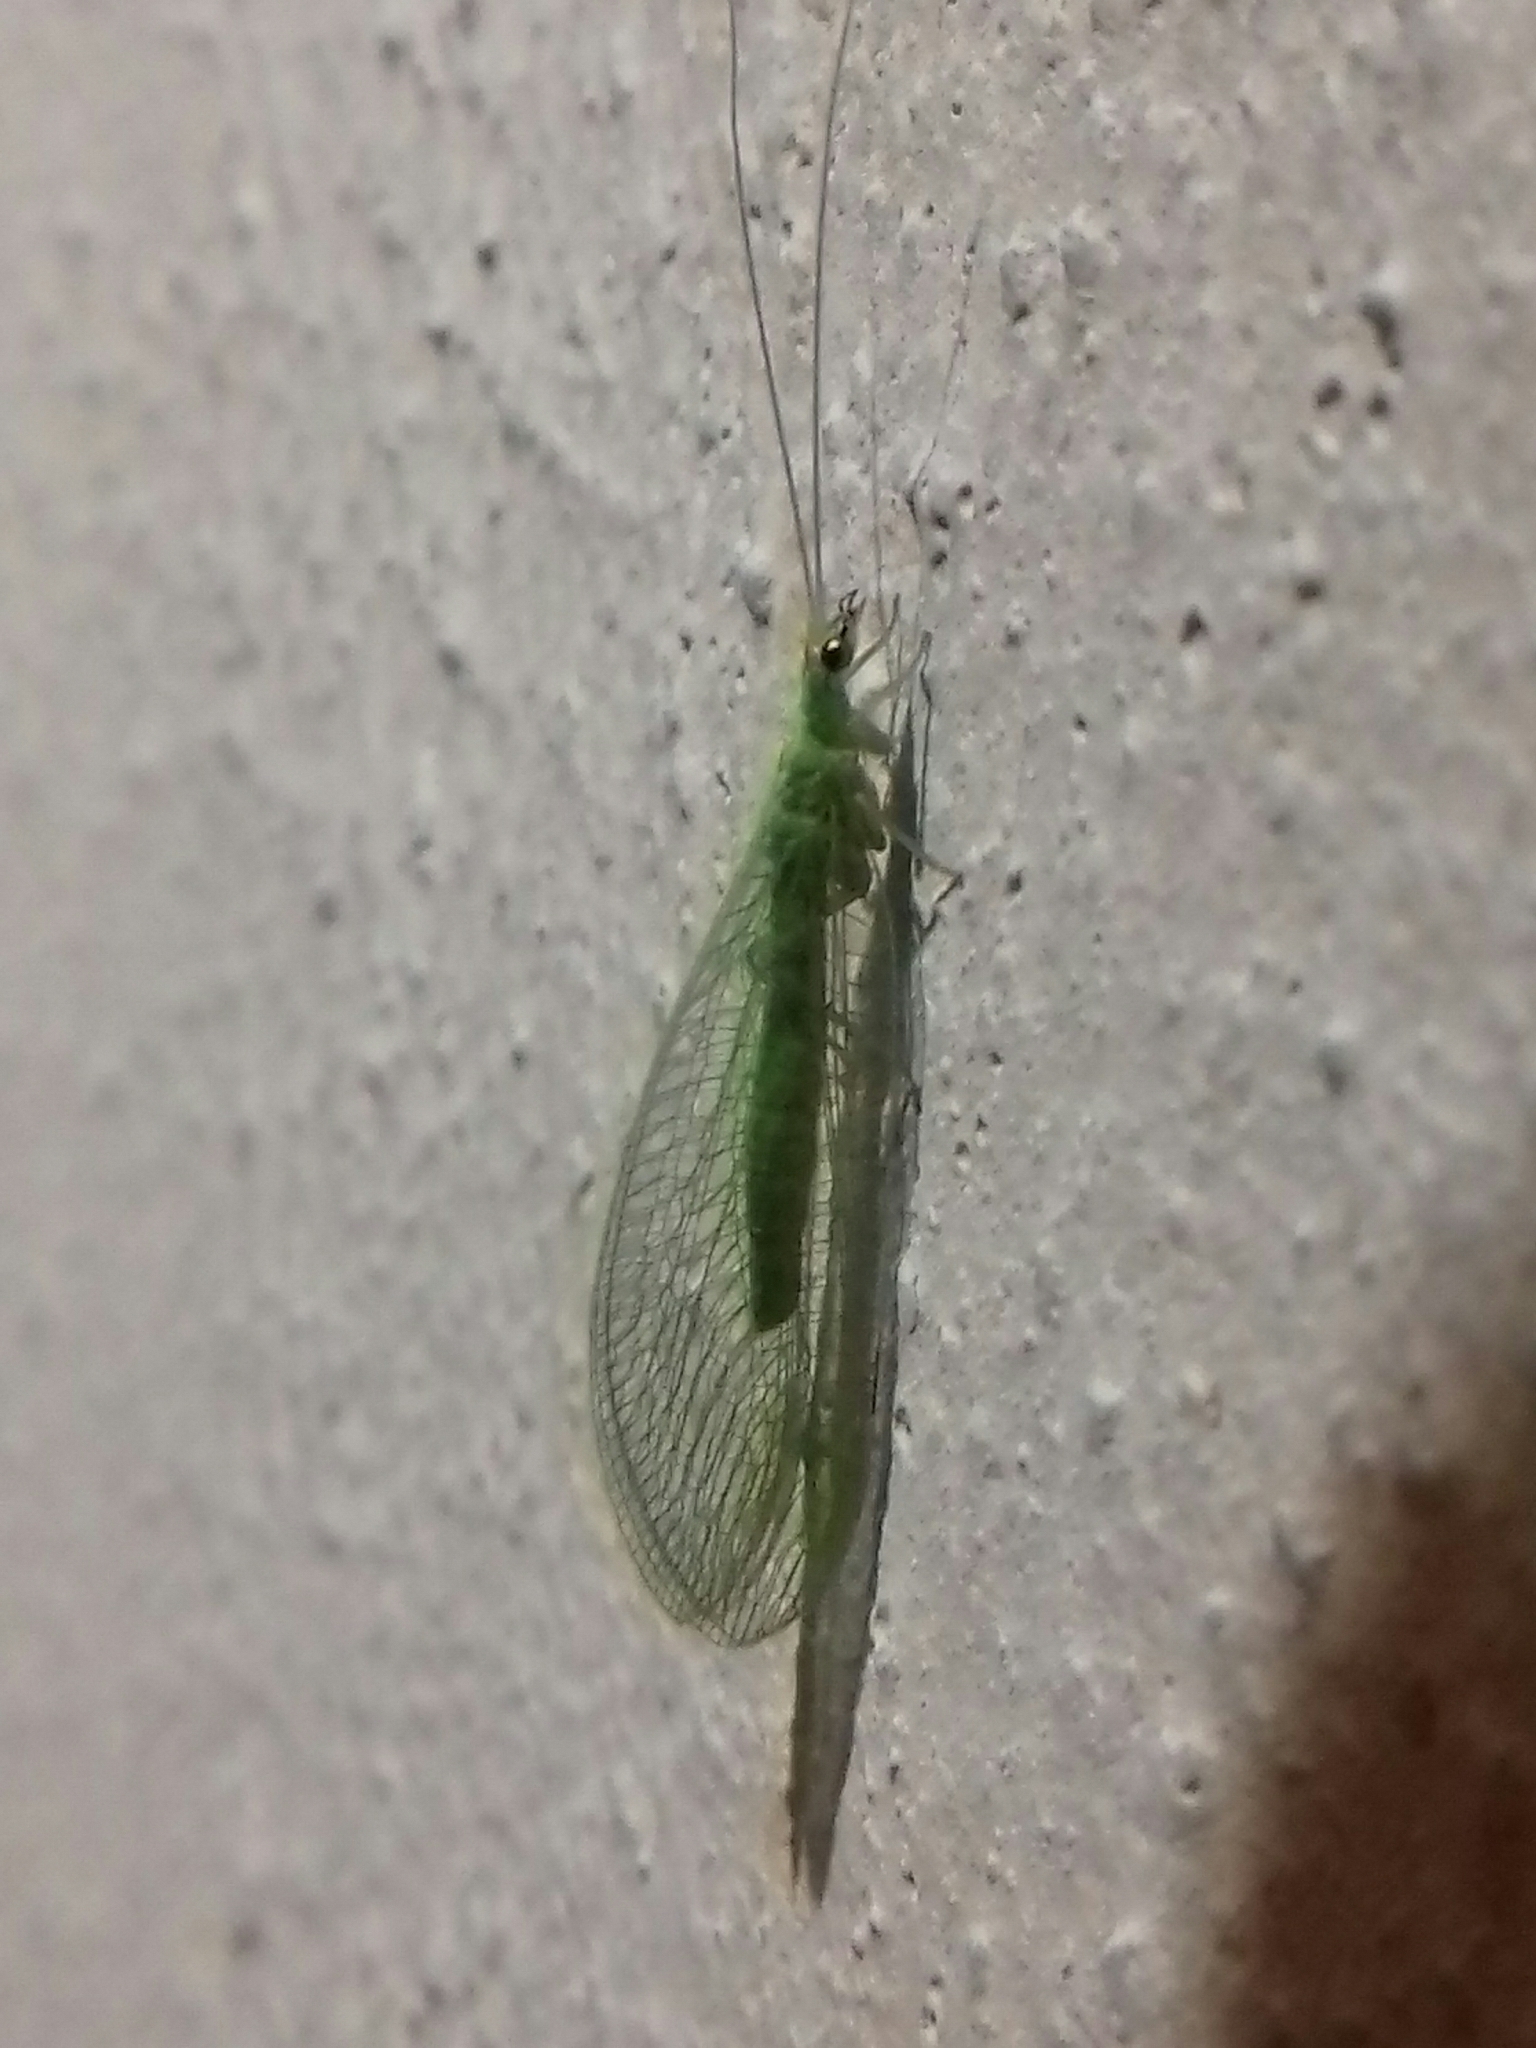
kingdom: Animalia
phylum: Arthropoda
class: Insecta
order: Neuroptera
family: Chrysopidae
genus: Chrysoperla
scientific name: Chrysoperla
